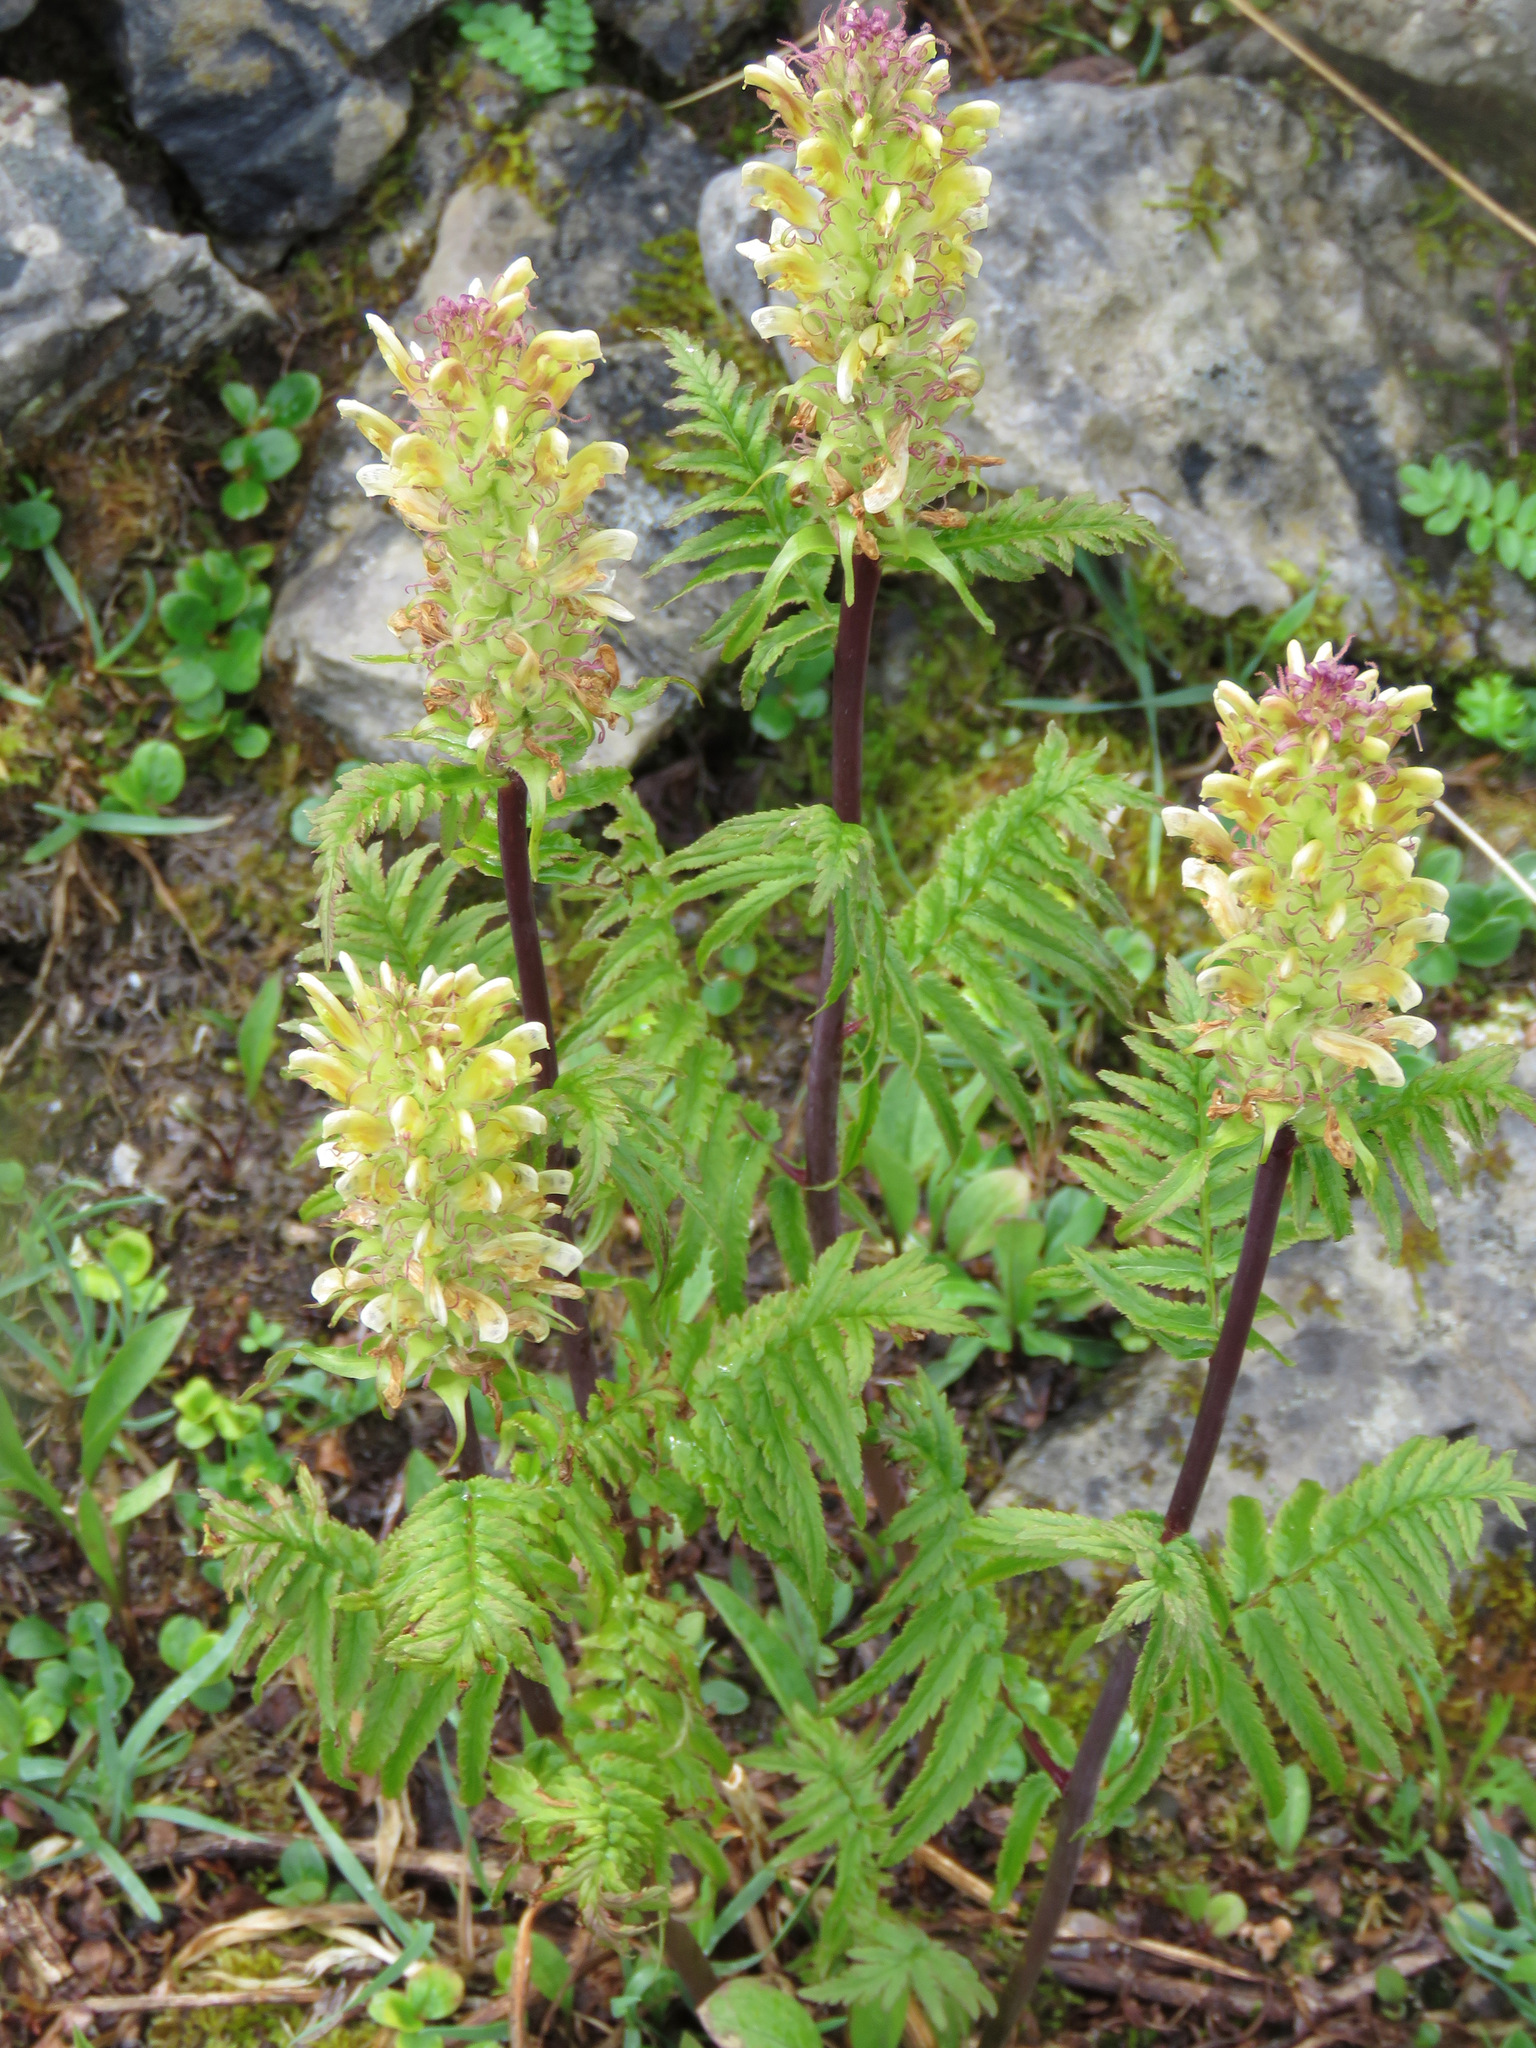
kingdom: Plantae
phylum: Tracheophyta
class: Magnoliopsida
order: Lamiales
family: Orobanchaceae
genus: Pedicularis
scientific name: Pedicularis bracteosa
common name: Bracted lousewort
